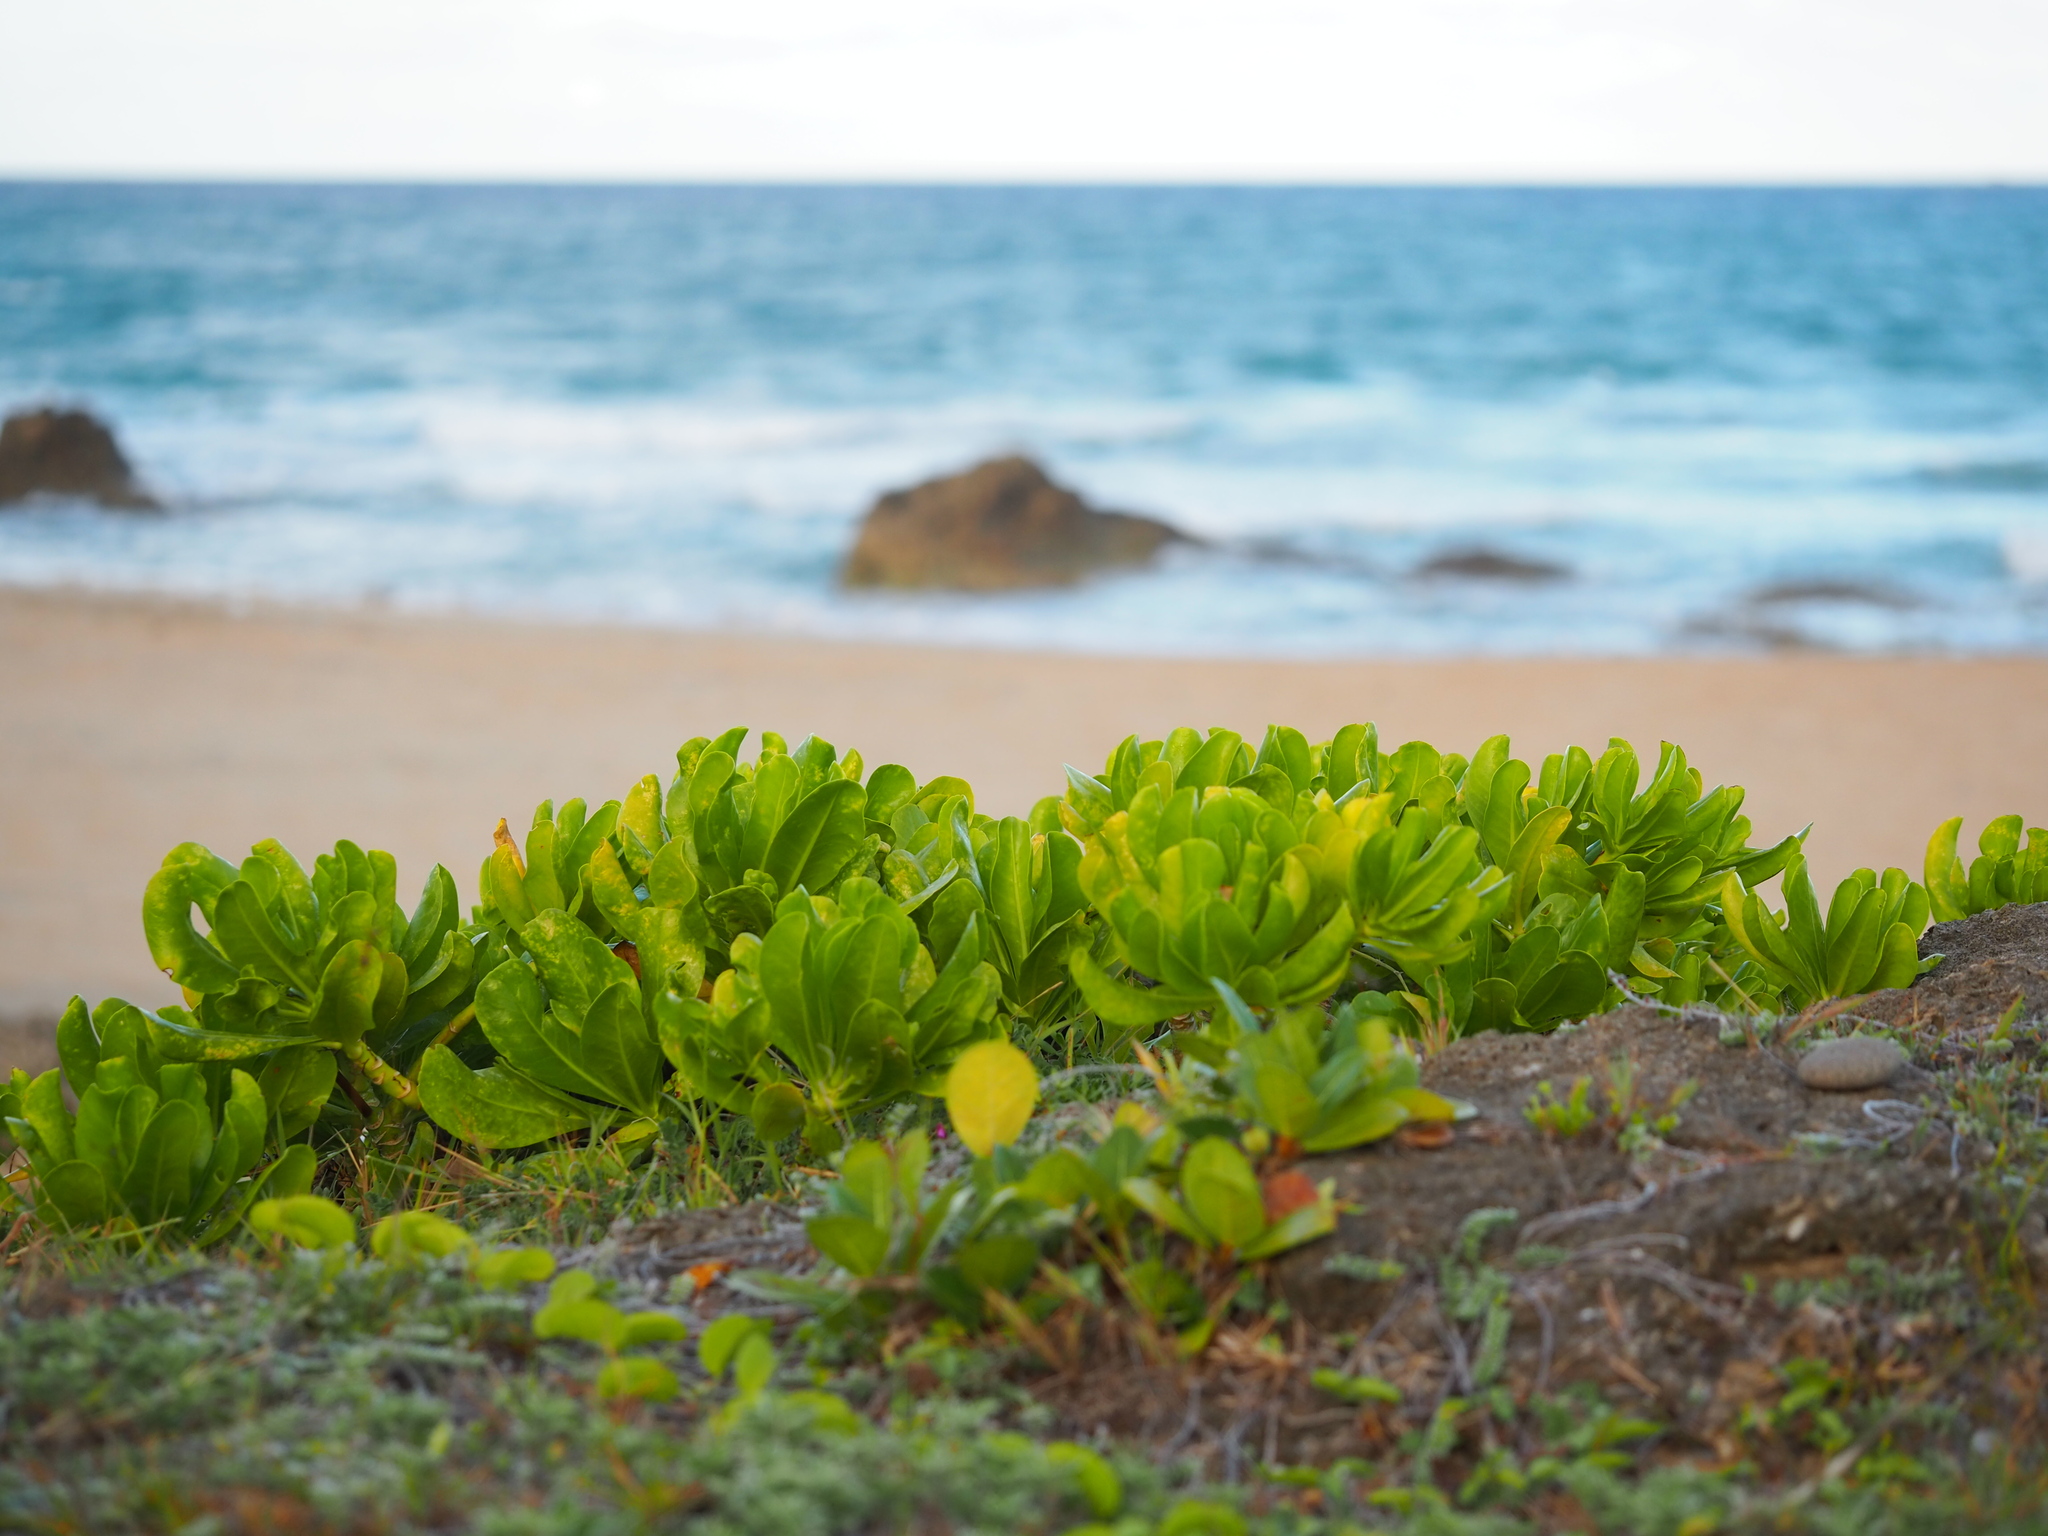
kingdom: Plantae
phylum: Tracheophyta
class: Magnoliopsida
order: Asterales
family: Goodeniaceae
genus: Scaevola
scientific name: Scaevola taccada
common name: Sea lettucetree
